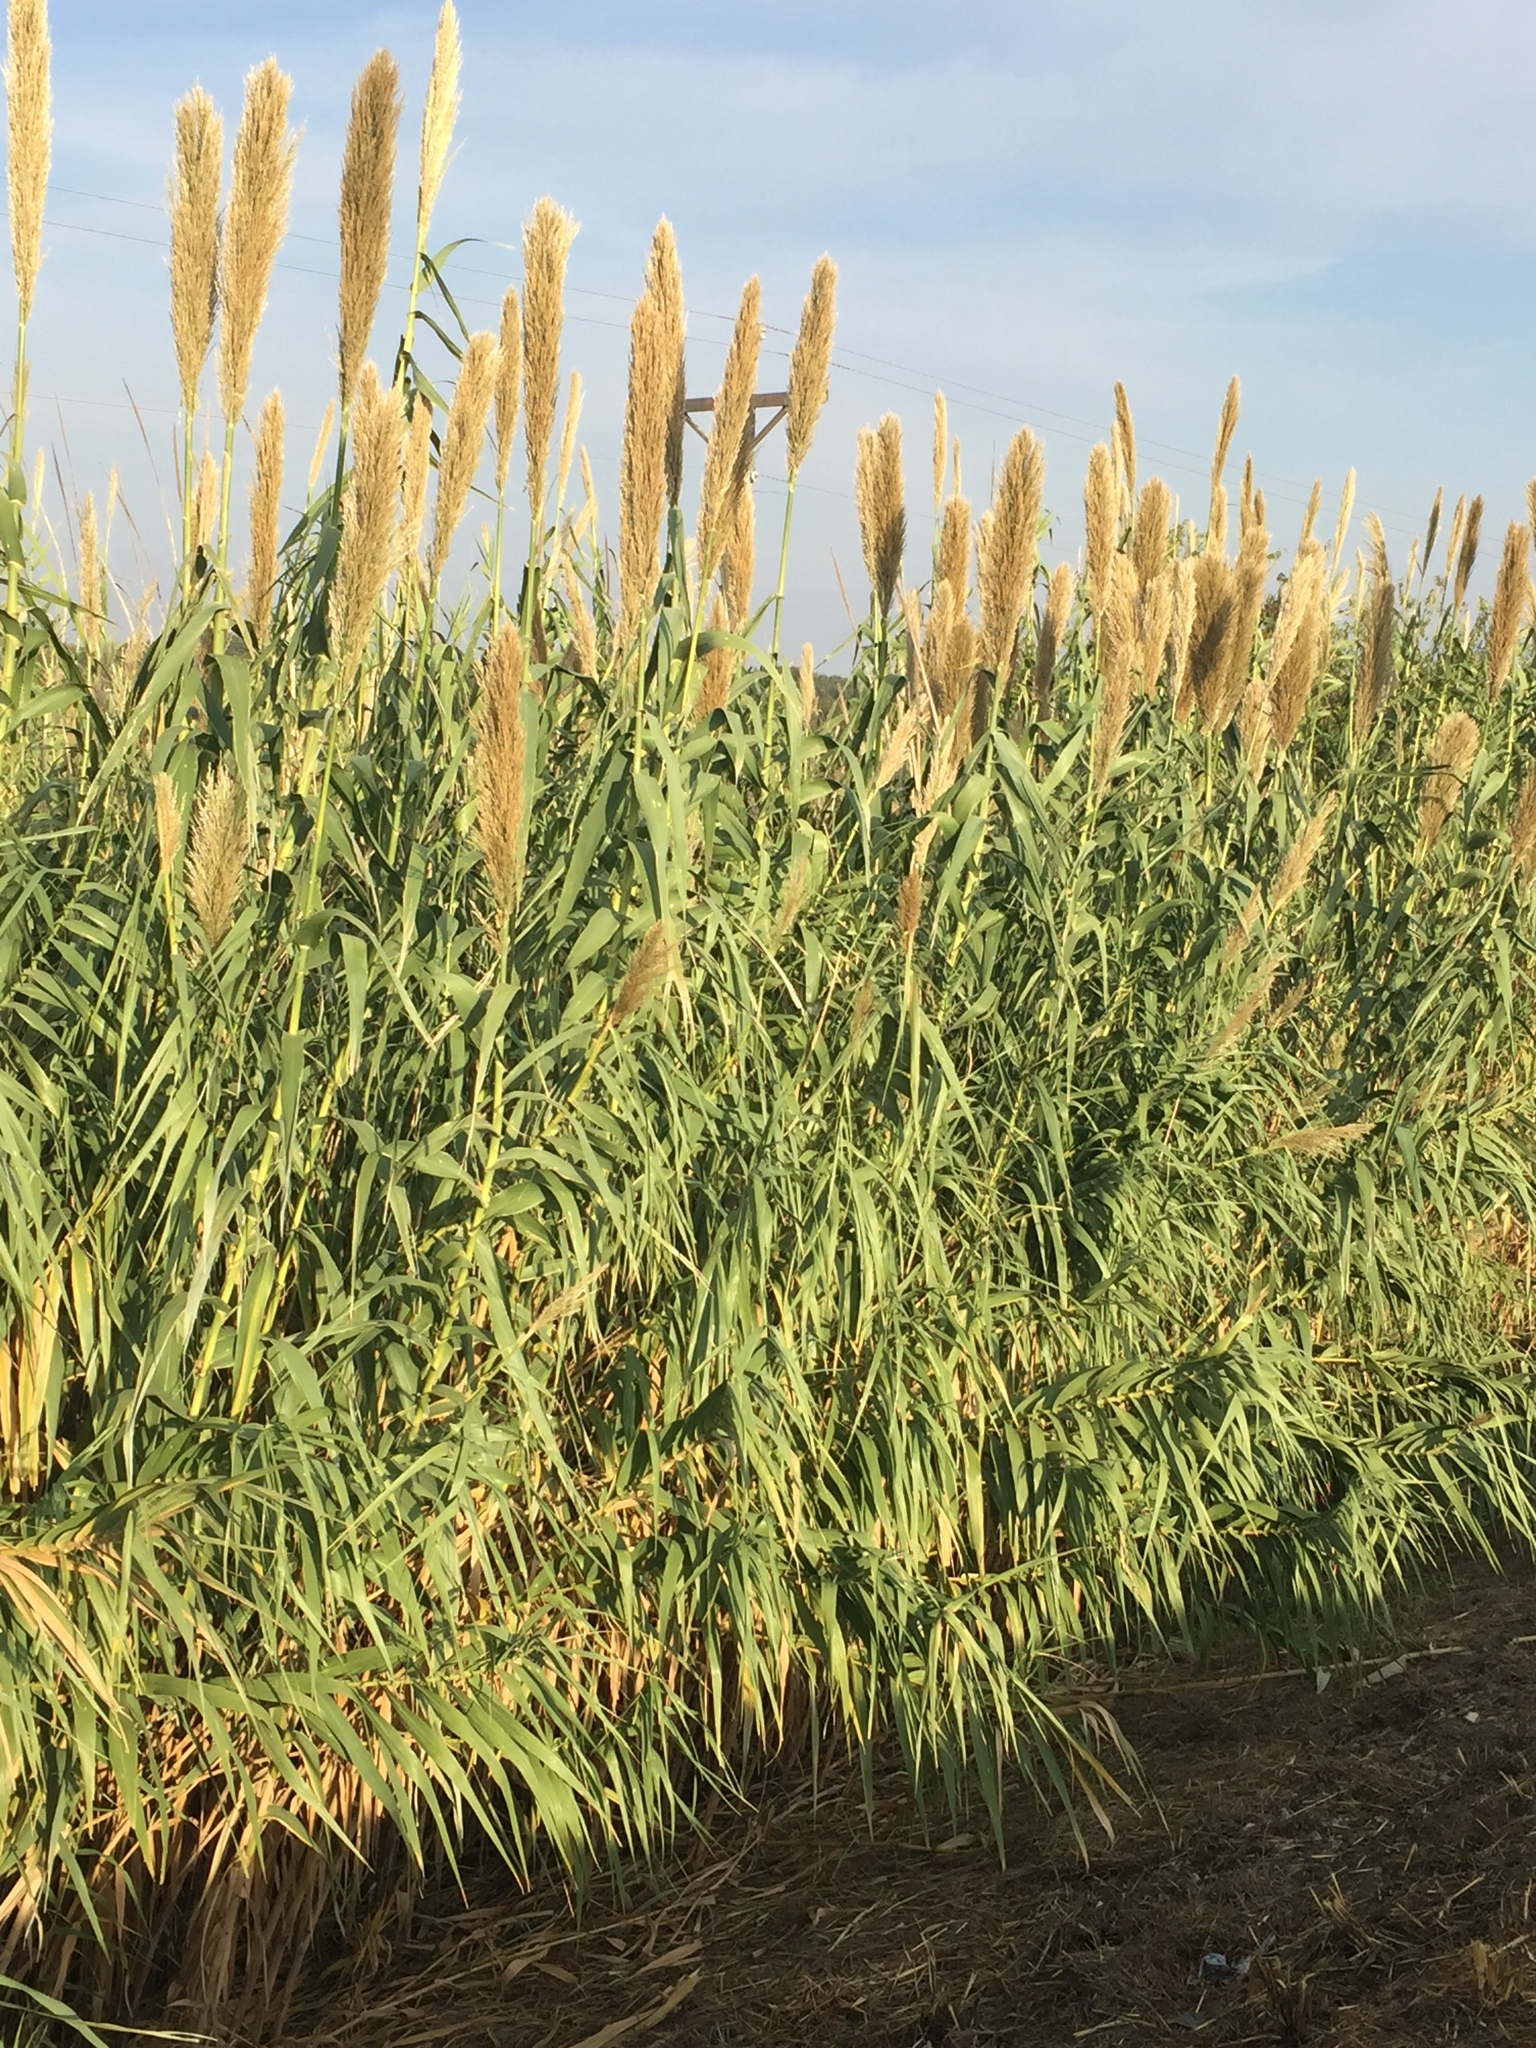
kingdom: Plantae
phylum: Tracheophyta
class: Liliopsida
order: Poales
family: Poaceae
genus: Arundo
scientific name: Arundo donax
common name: Giant reed
